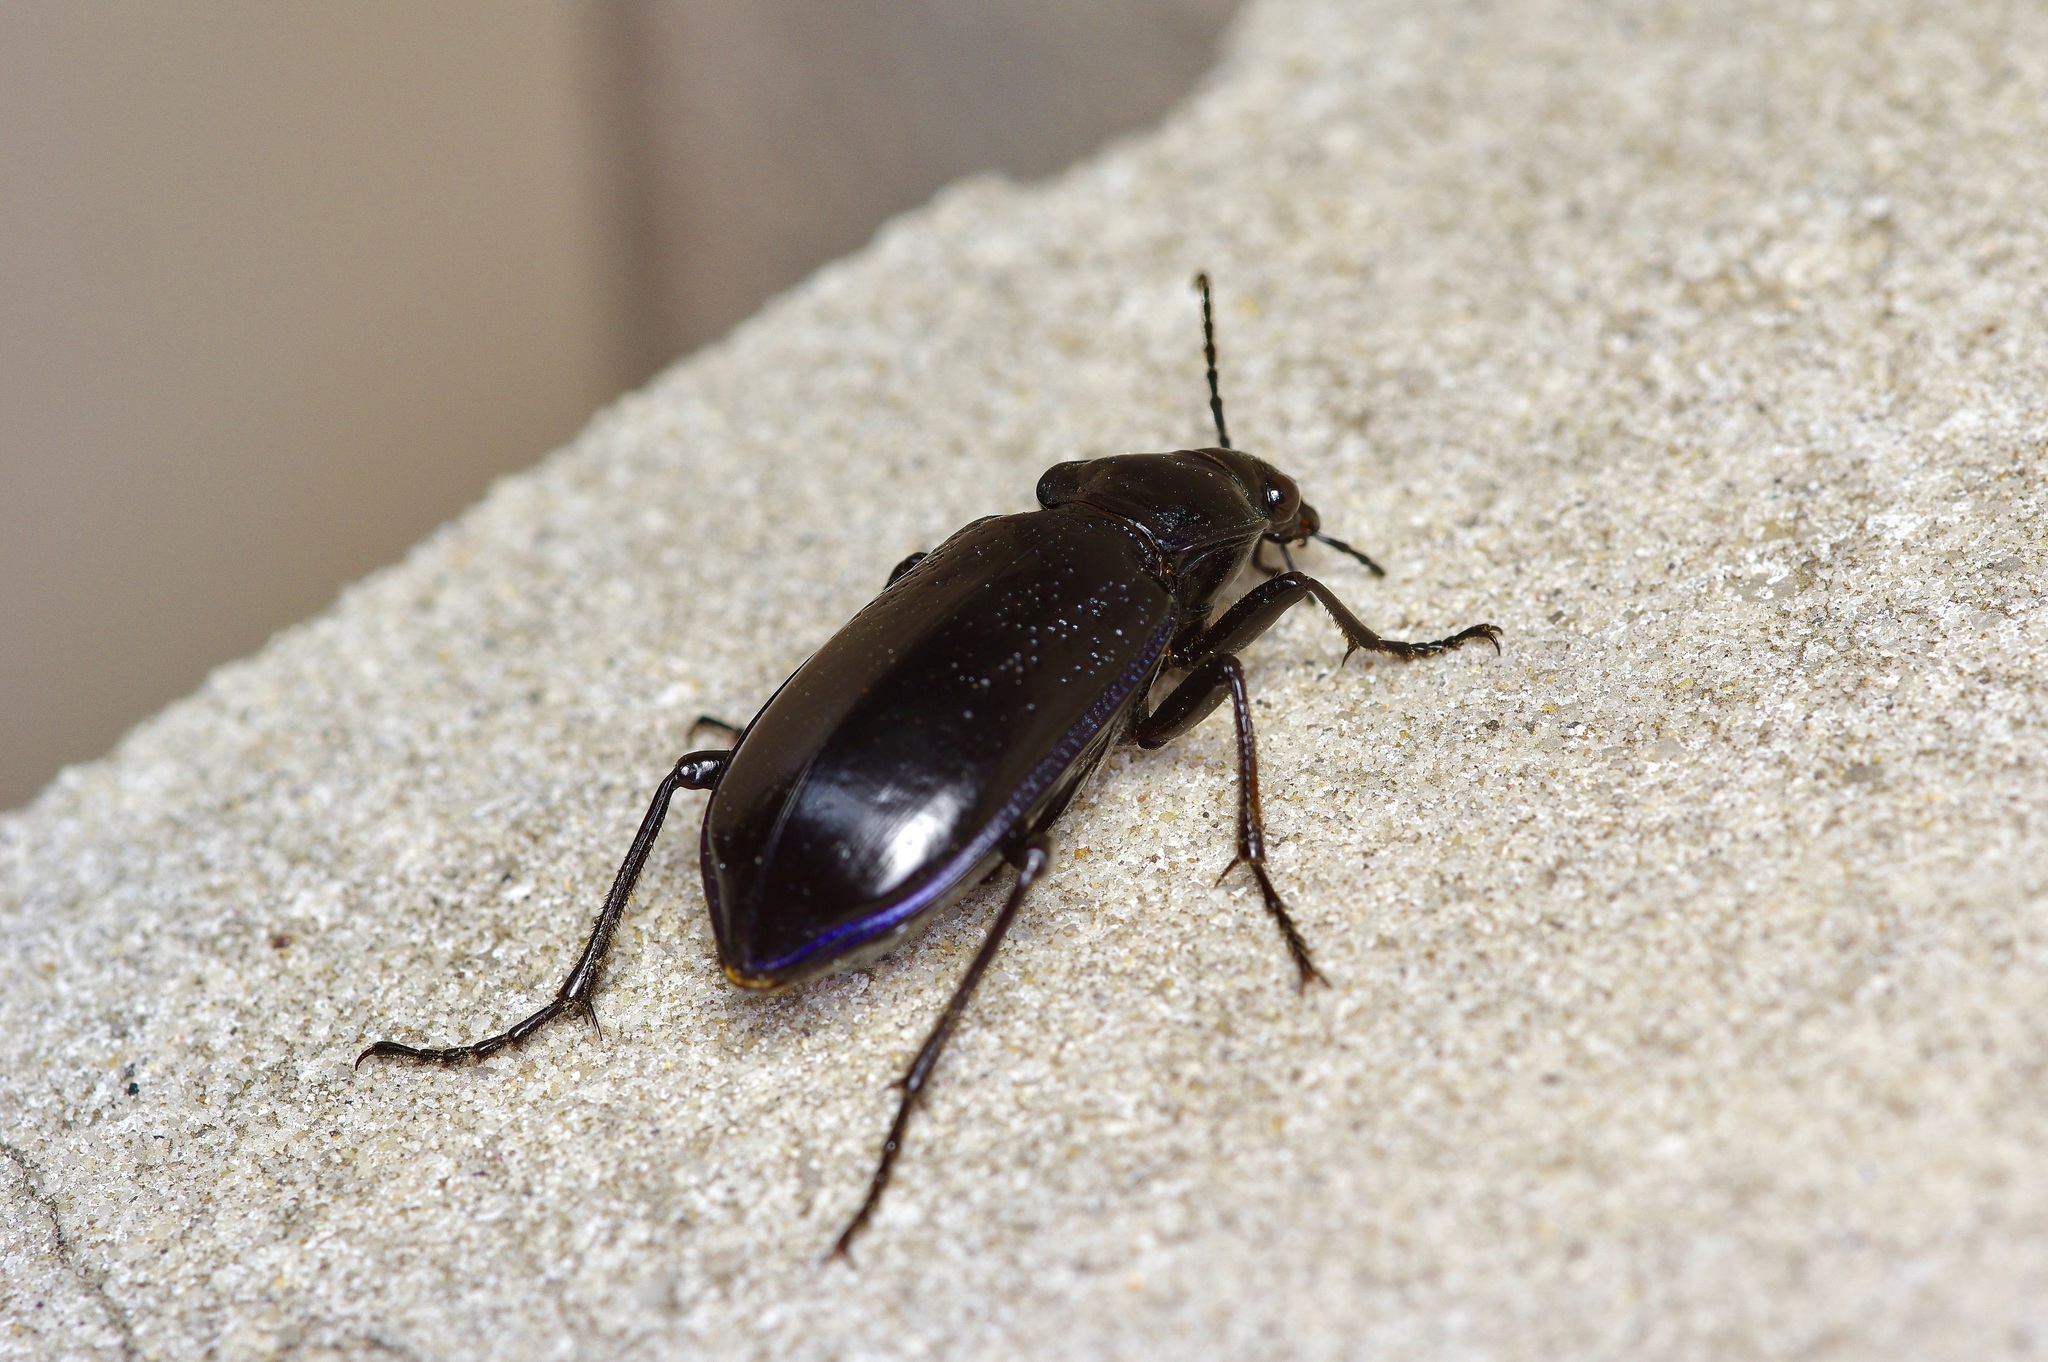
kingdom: Animalia
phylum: Arthropoda
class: Insecta
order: Coleoptera
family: Carabidae
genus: Calosoma
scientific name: Calosoma marginale
